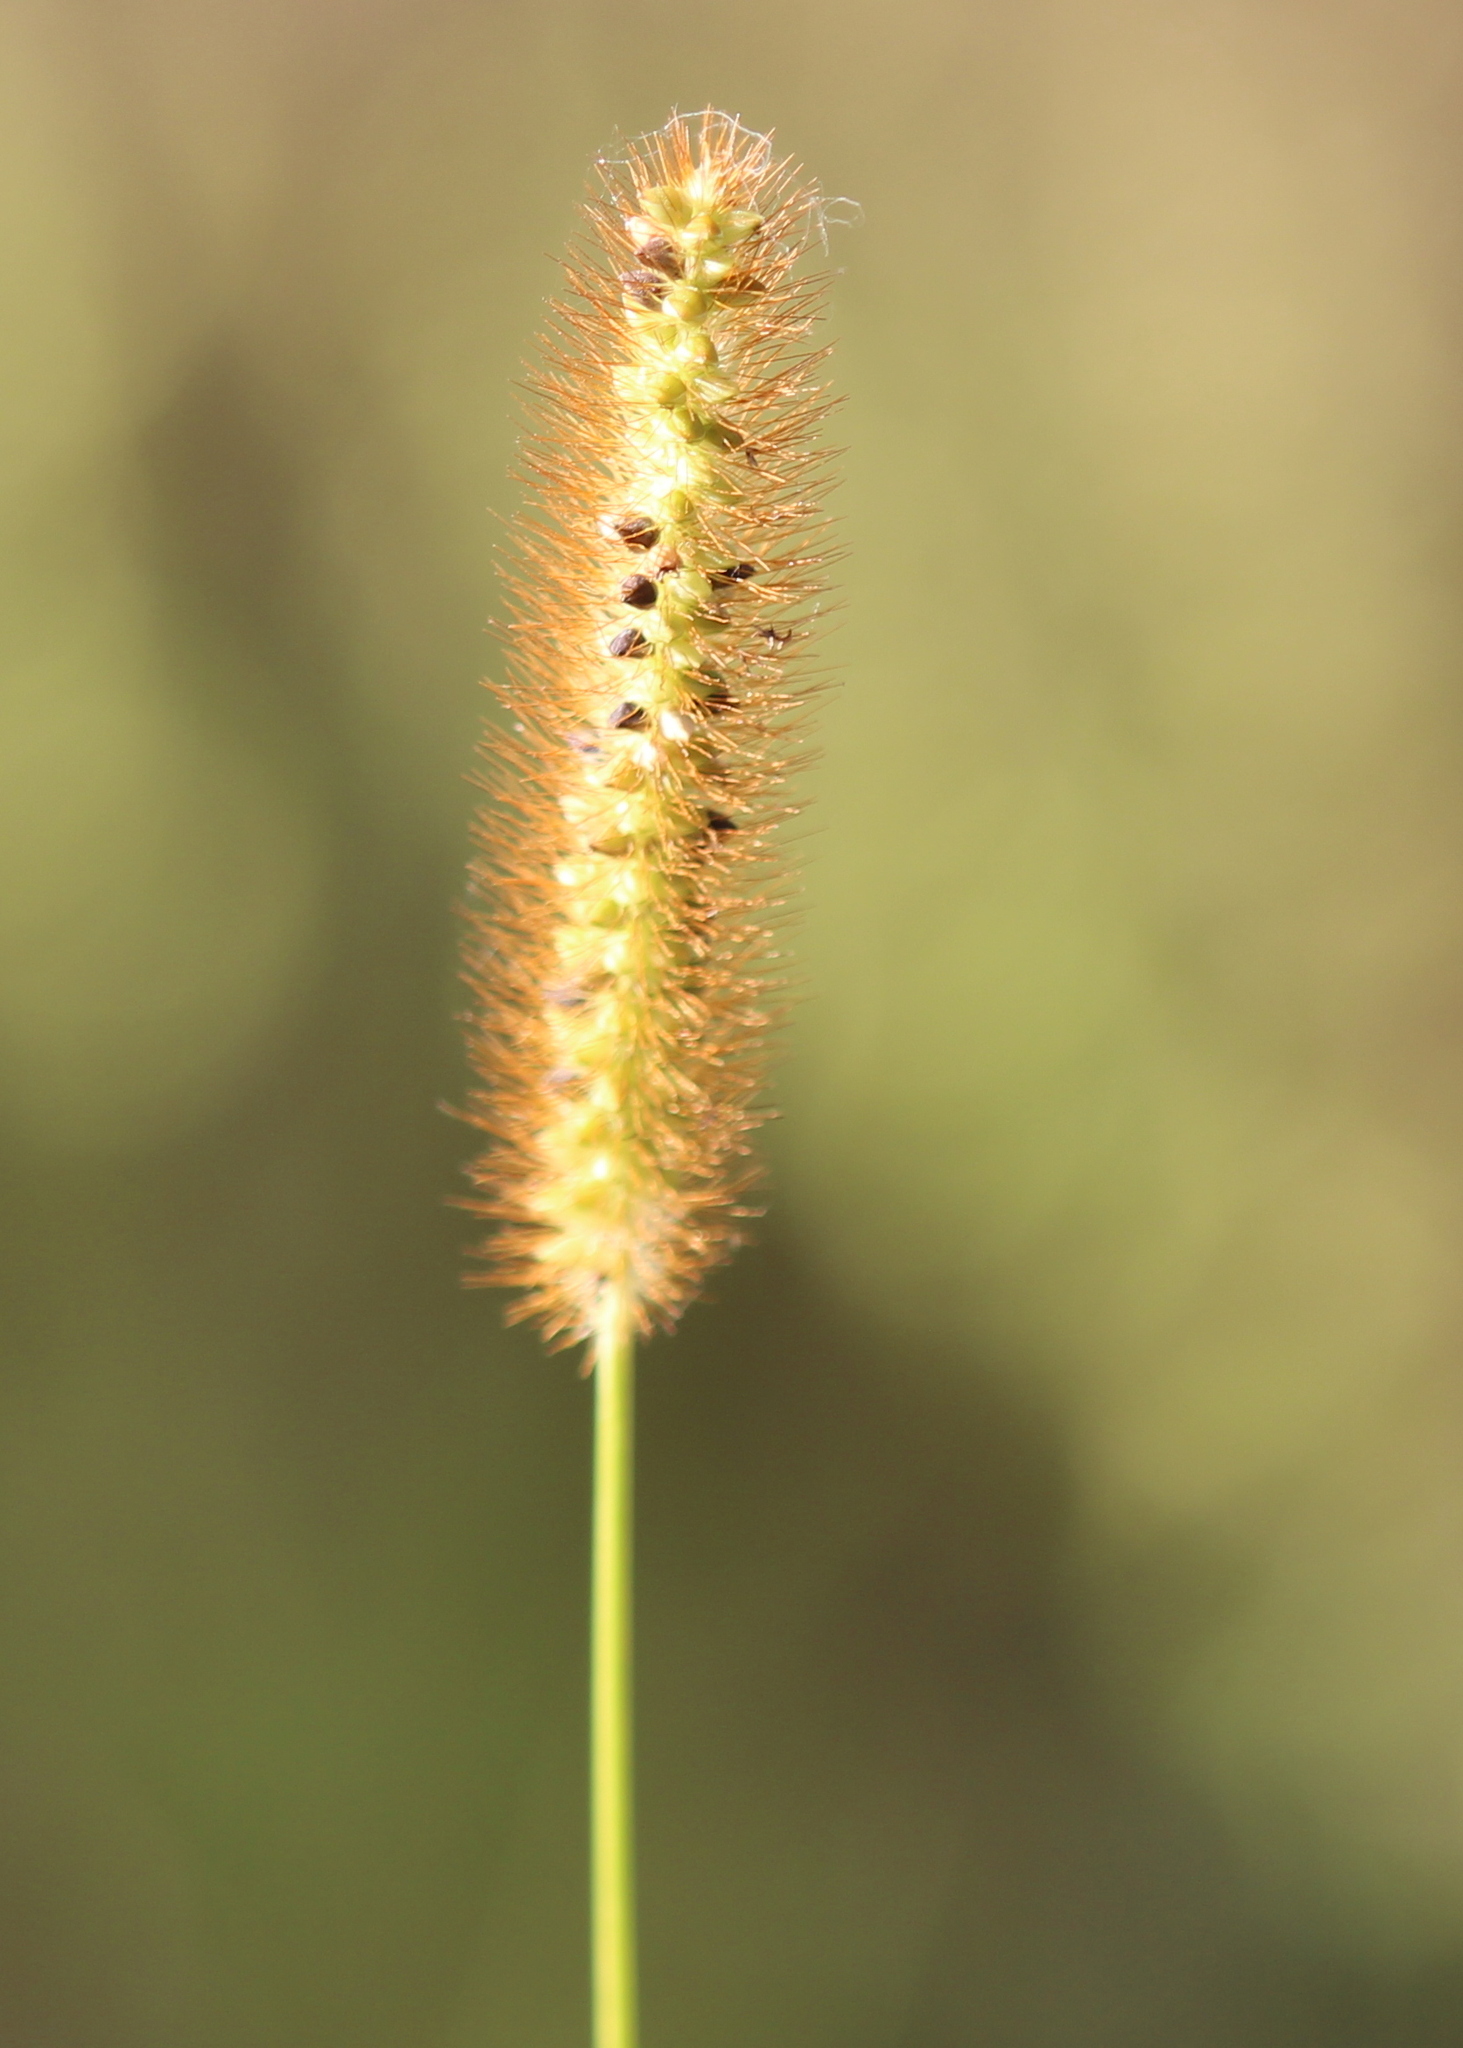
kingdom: Plantae
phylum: Tracheophyta
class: Liliopsida
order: Poales
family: Poaceae
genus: Setaria
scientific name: Setaria pumila
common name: Yellow bristle-grass
